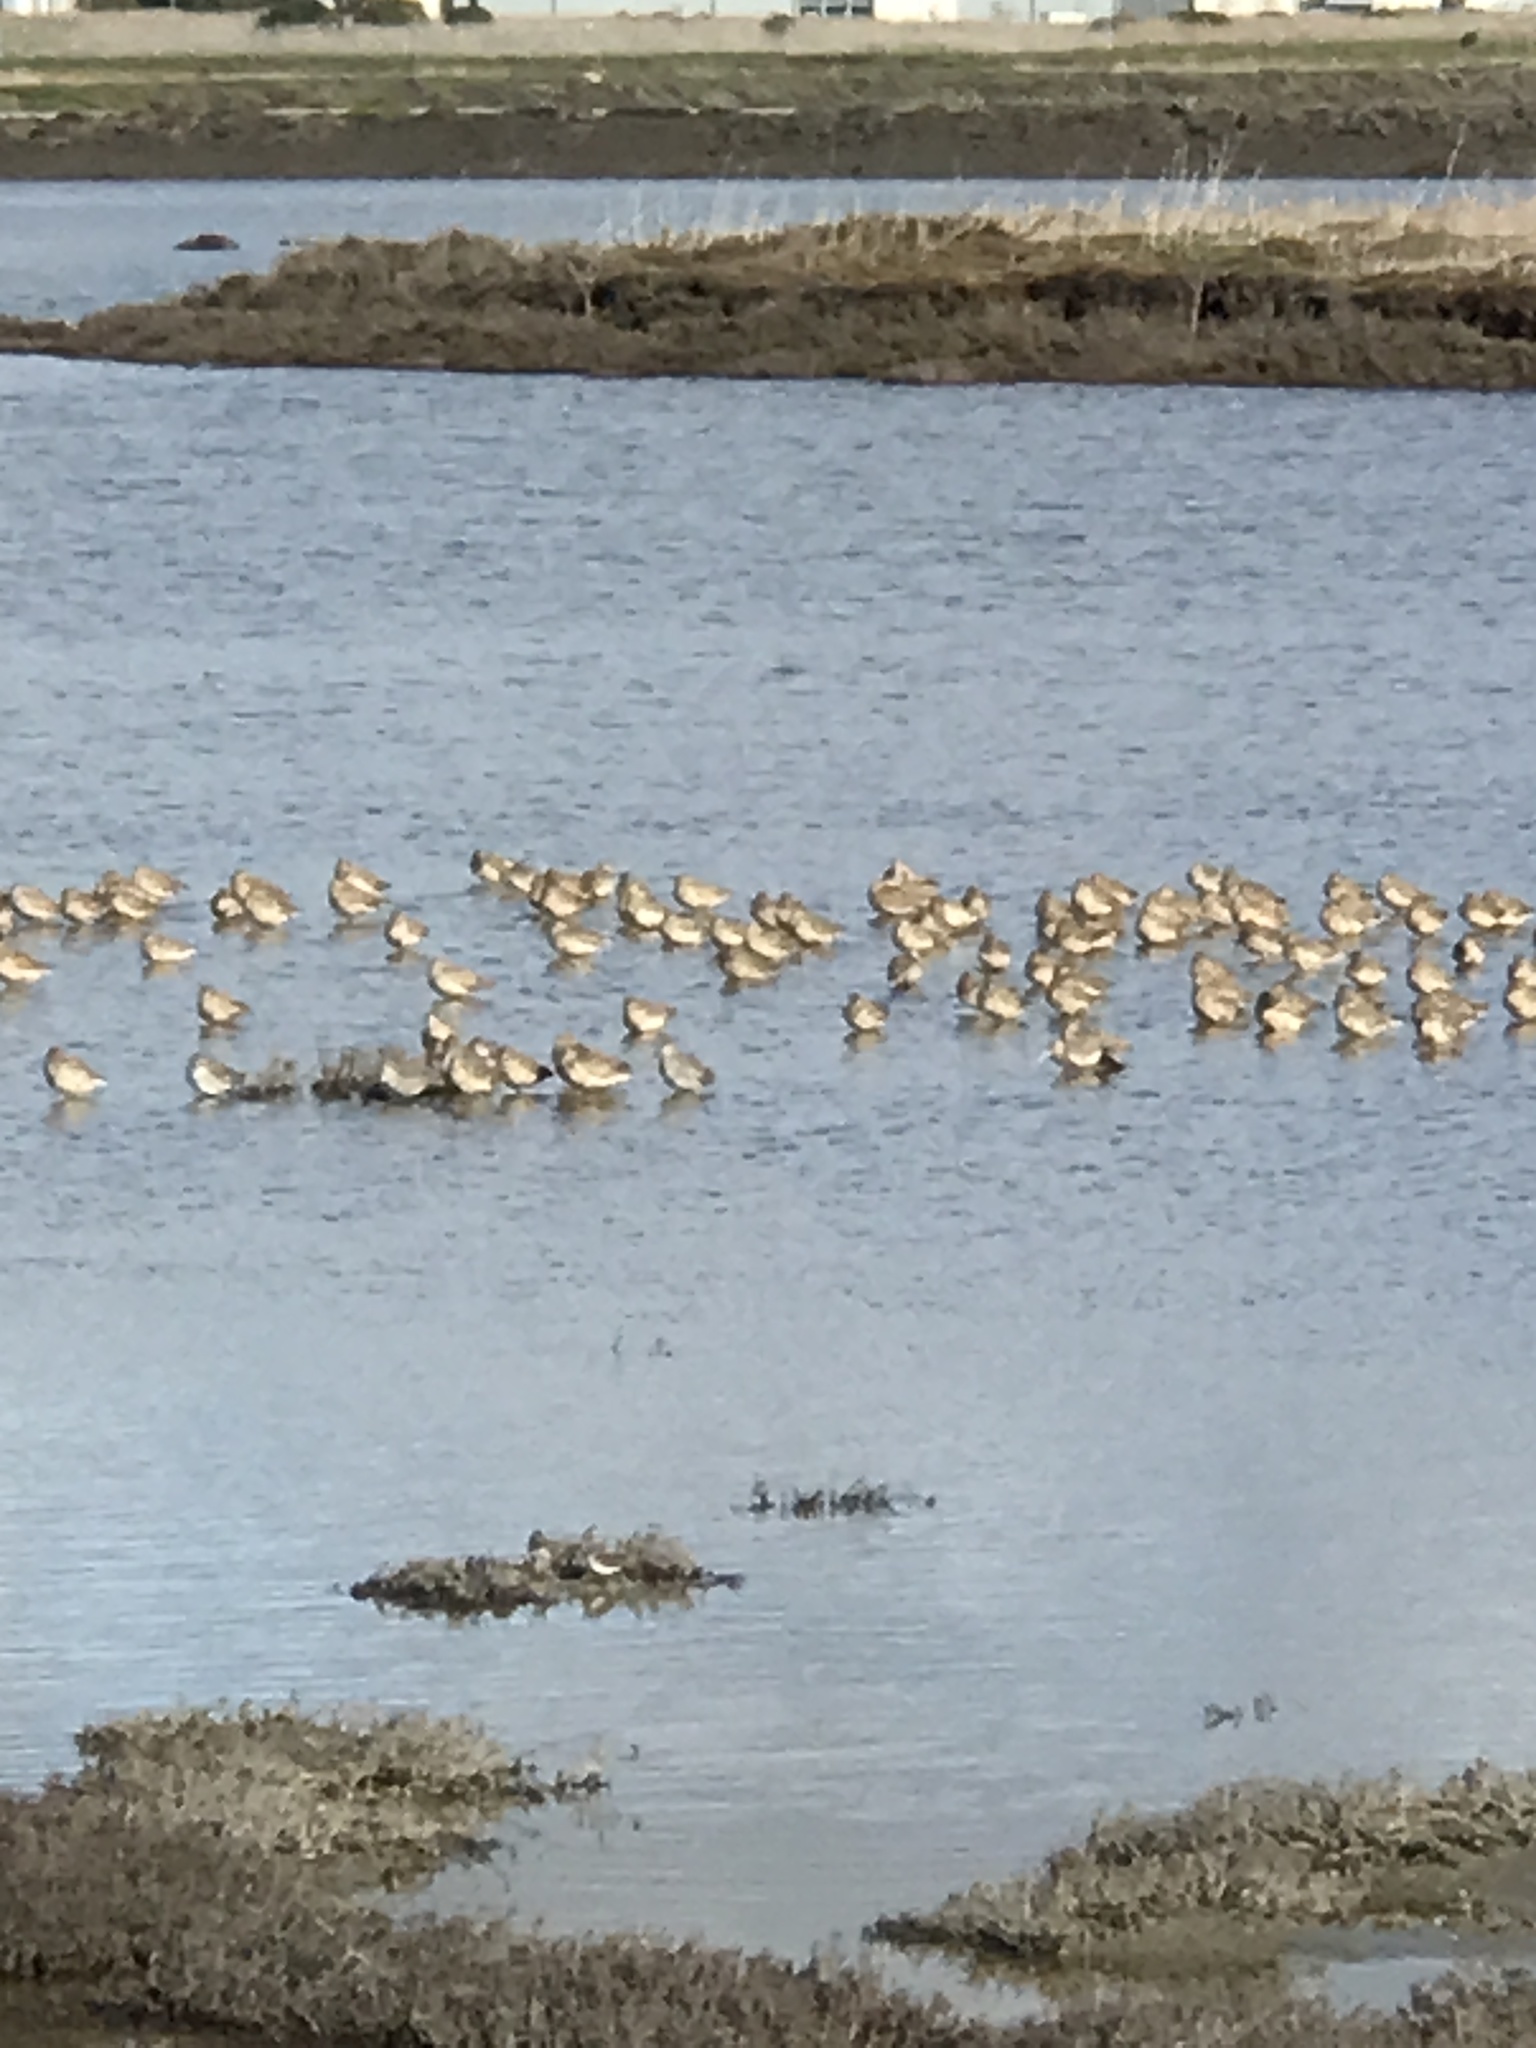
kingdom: Animalia
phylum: Chordata
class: Aves
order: Charadriiformes
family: Scolopacidae
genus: Limosa
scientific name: Limosa fedoa
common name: Marbled godwit
